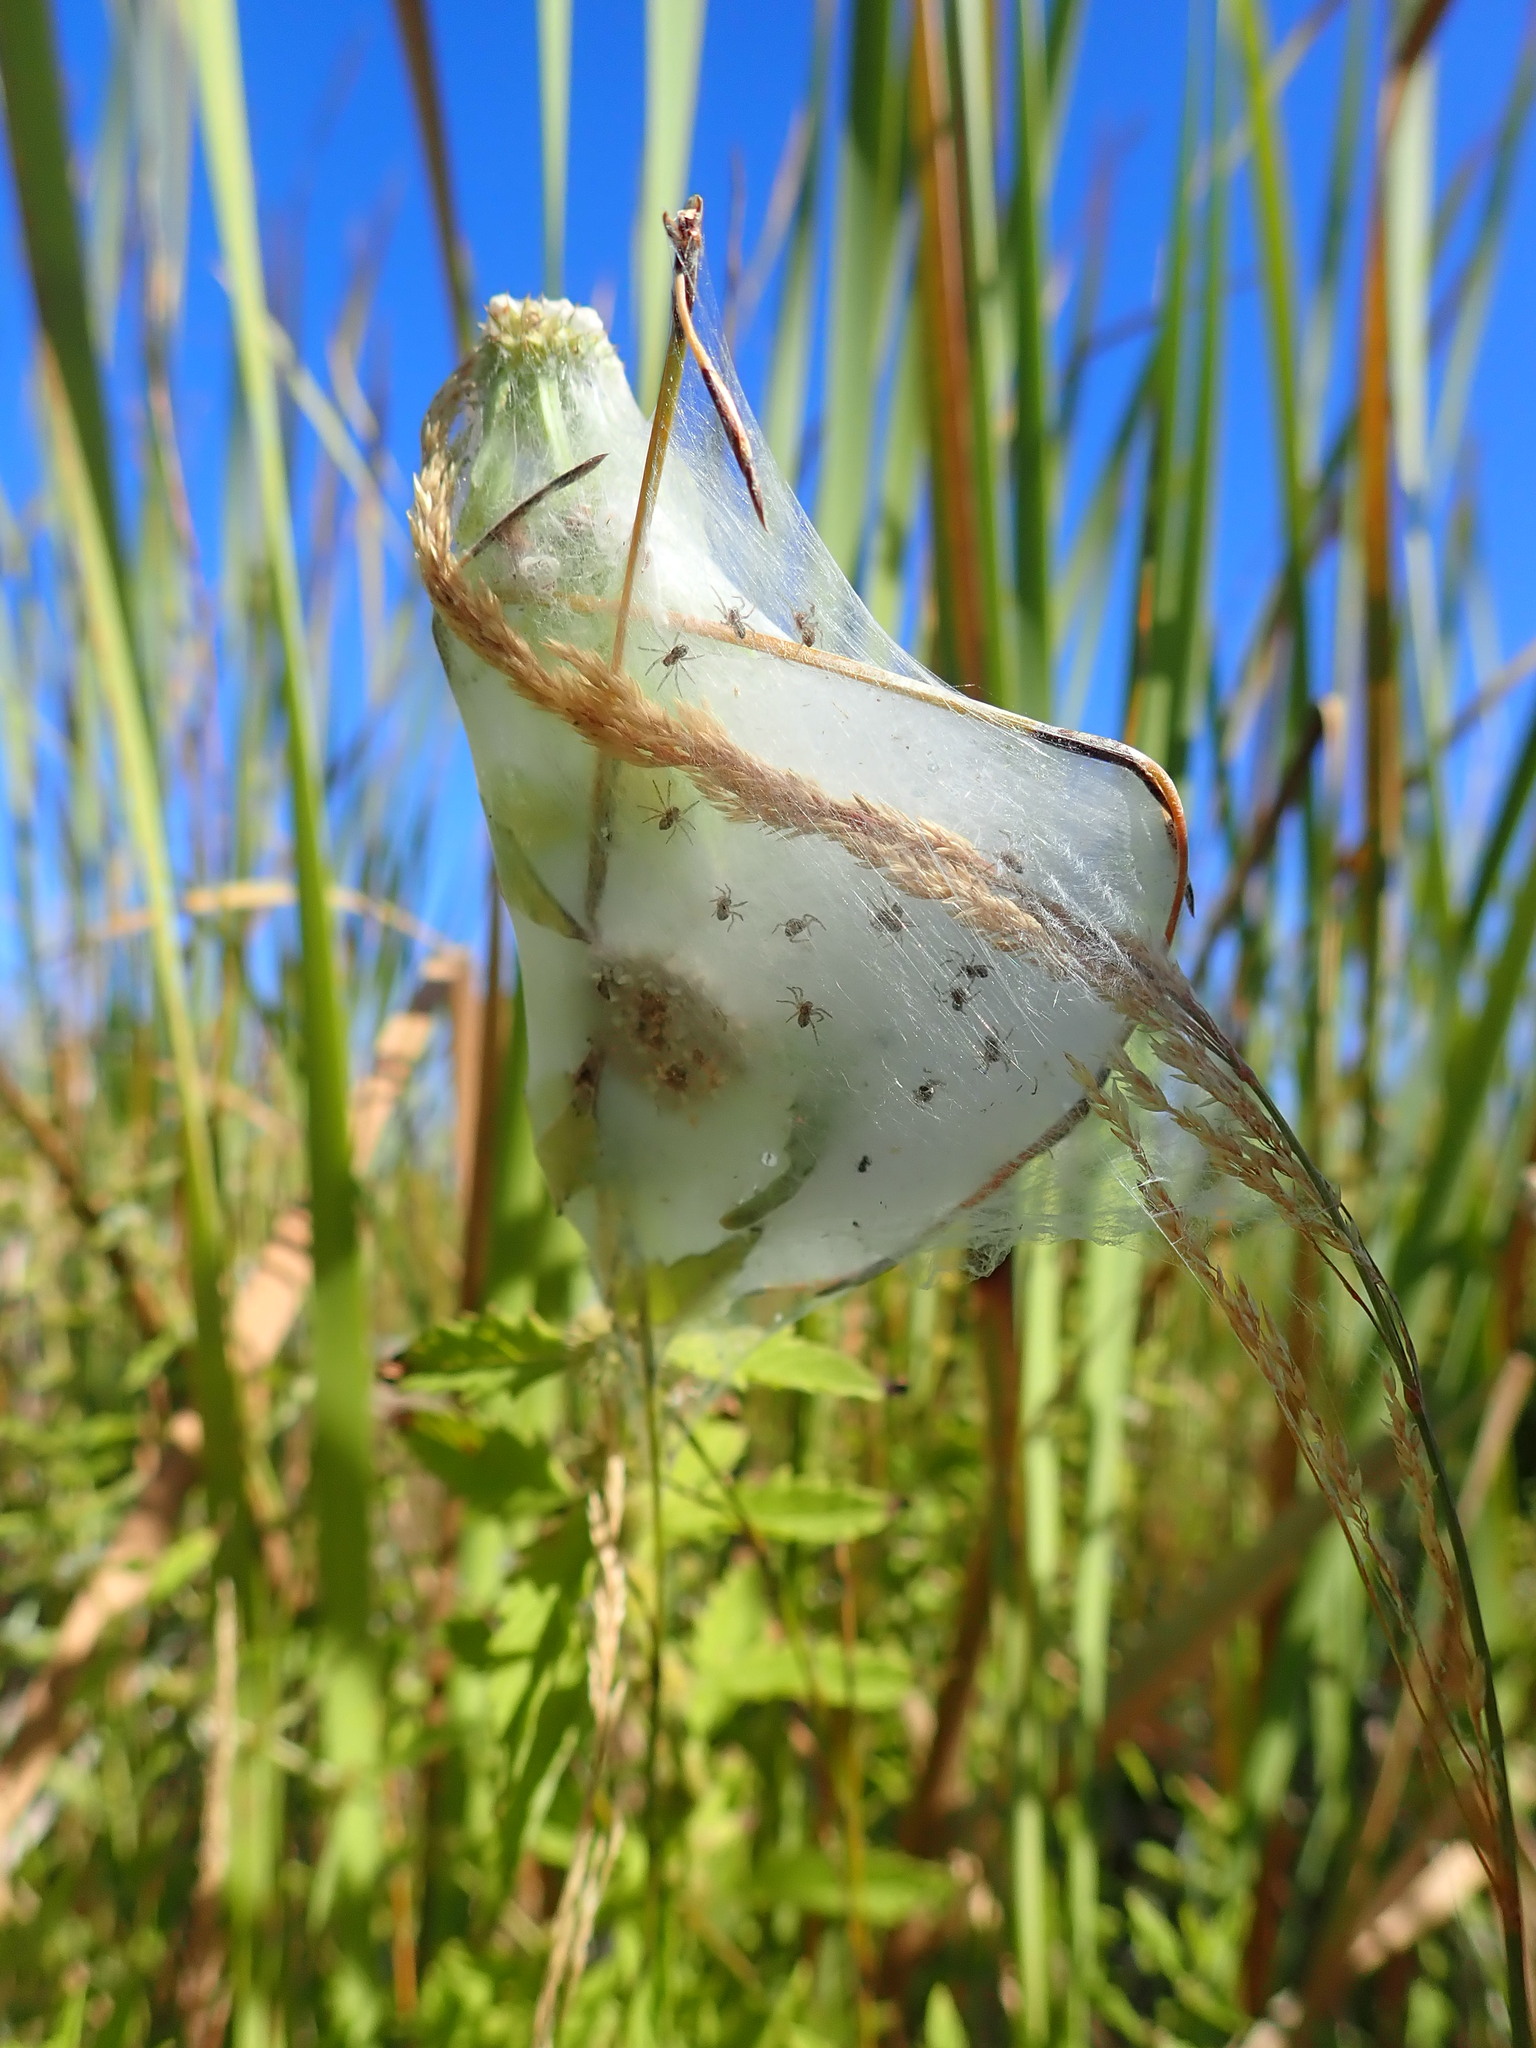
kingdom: Animalia
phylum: Arthropoda
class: Arachnida
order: Araneae
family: Pisauridae
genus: Dolomedes
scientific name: Dolomedes minor
